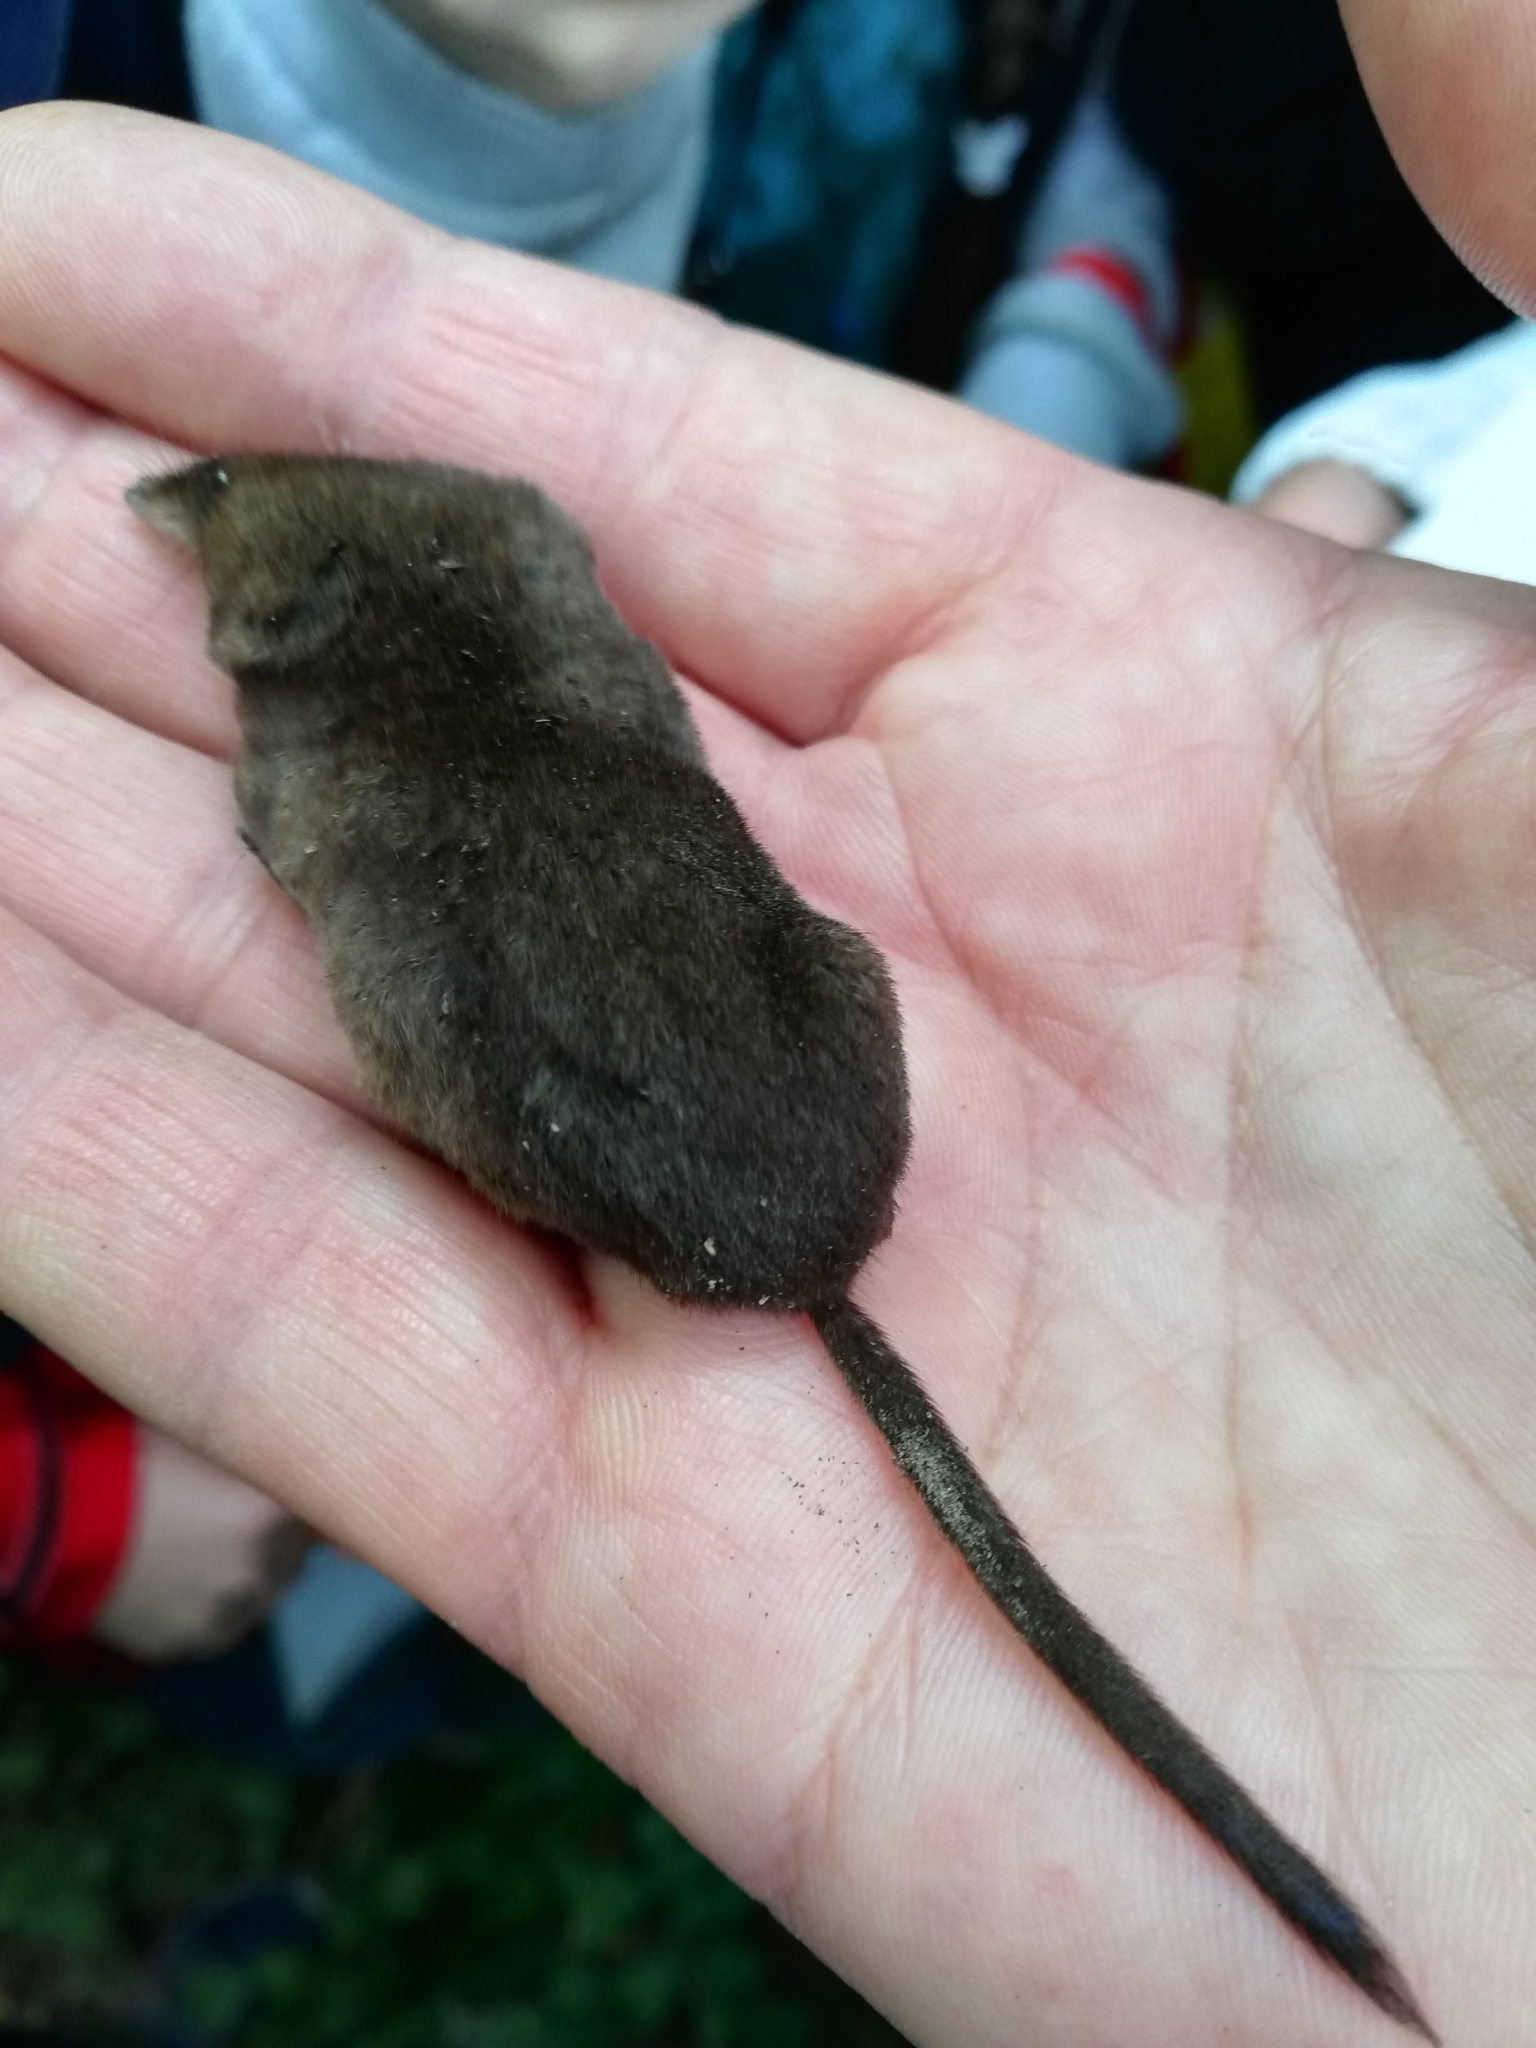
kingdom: Animalia
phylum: Chordata
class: Mammalia
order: Soricomorpha
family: Soricidae
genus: Sorex
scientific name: Sorex araneus
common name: Common shrew
